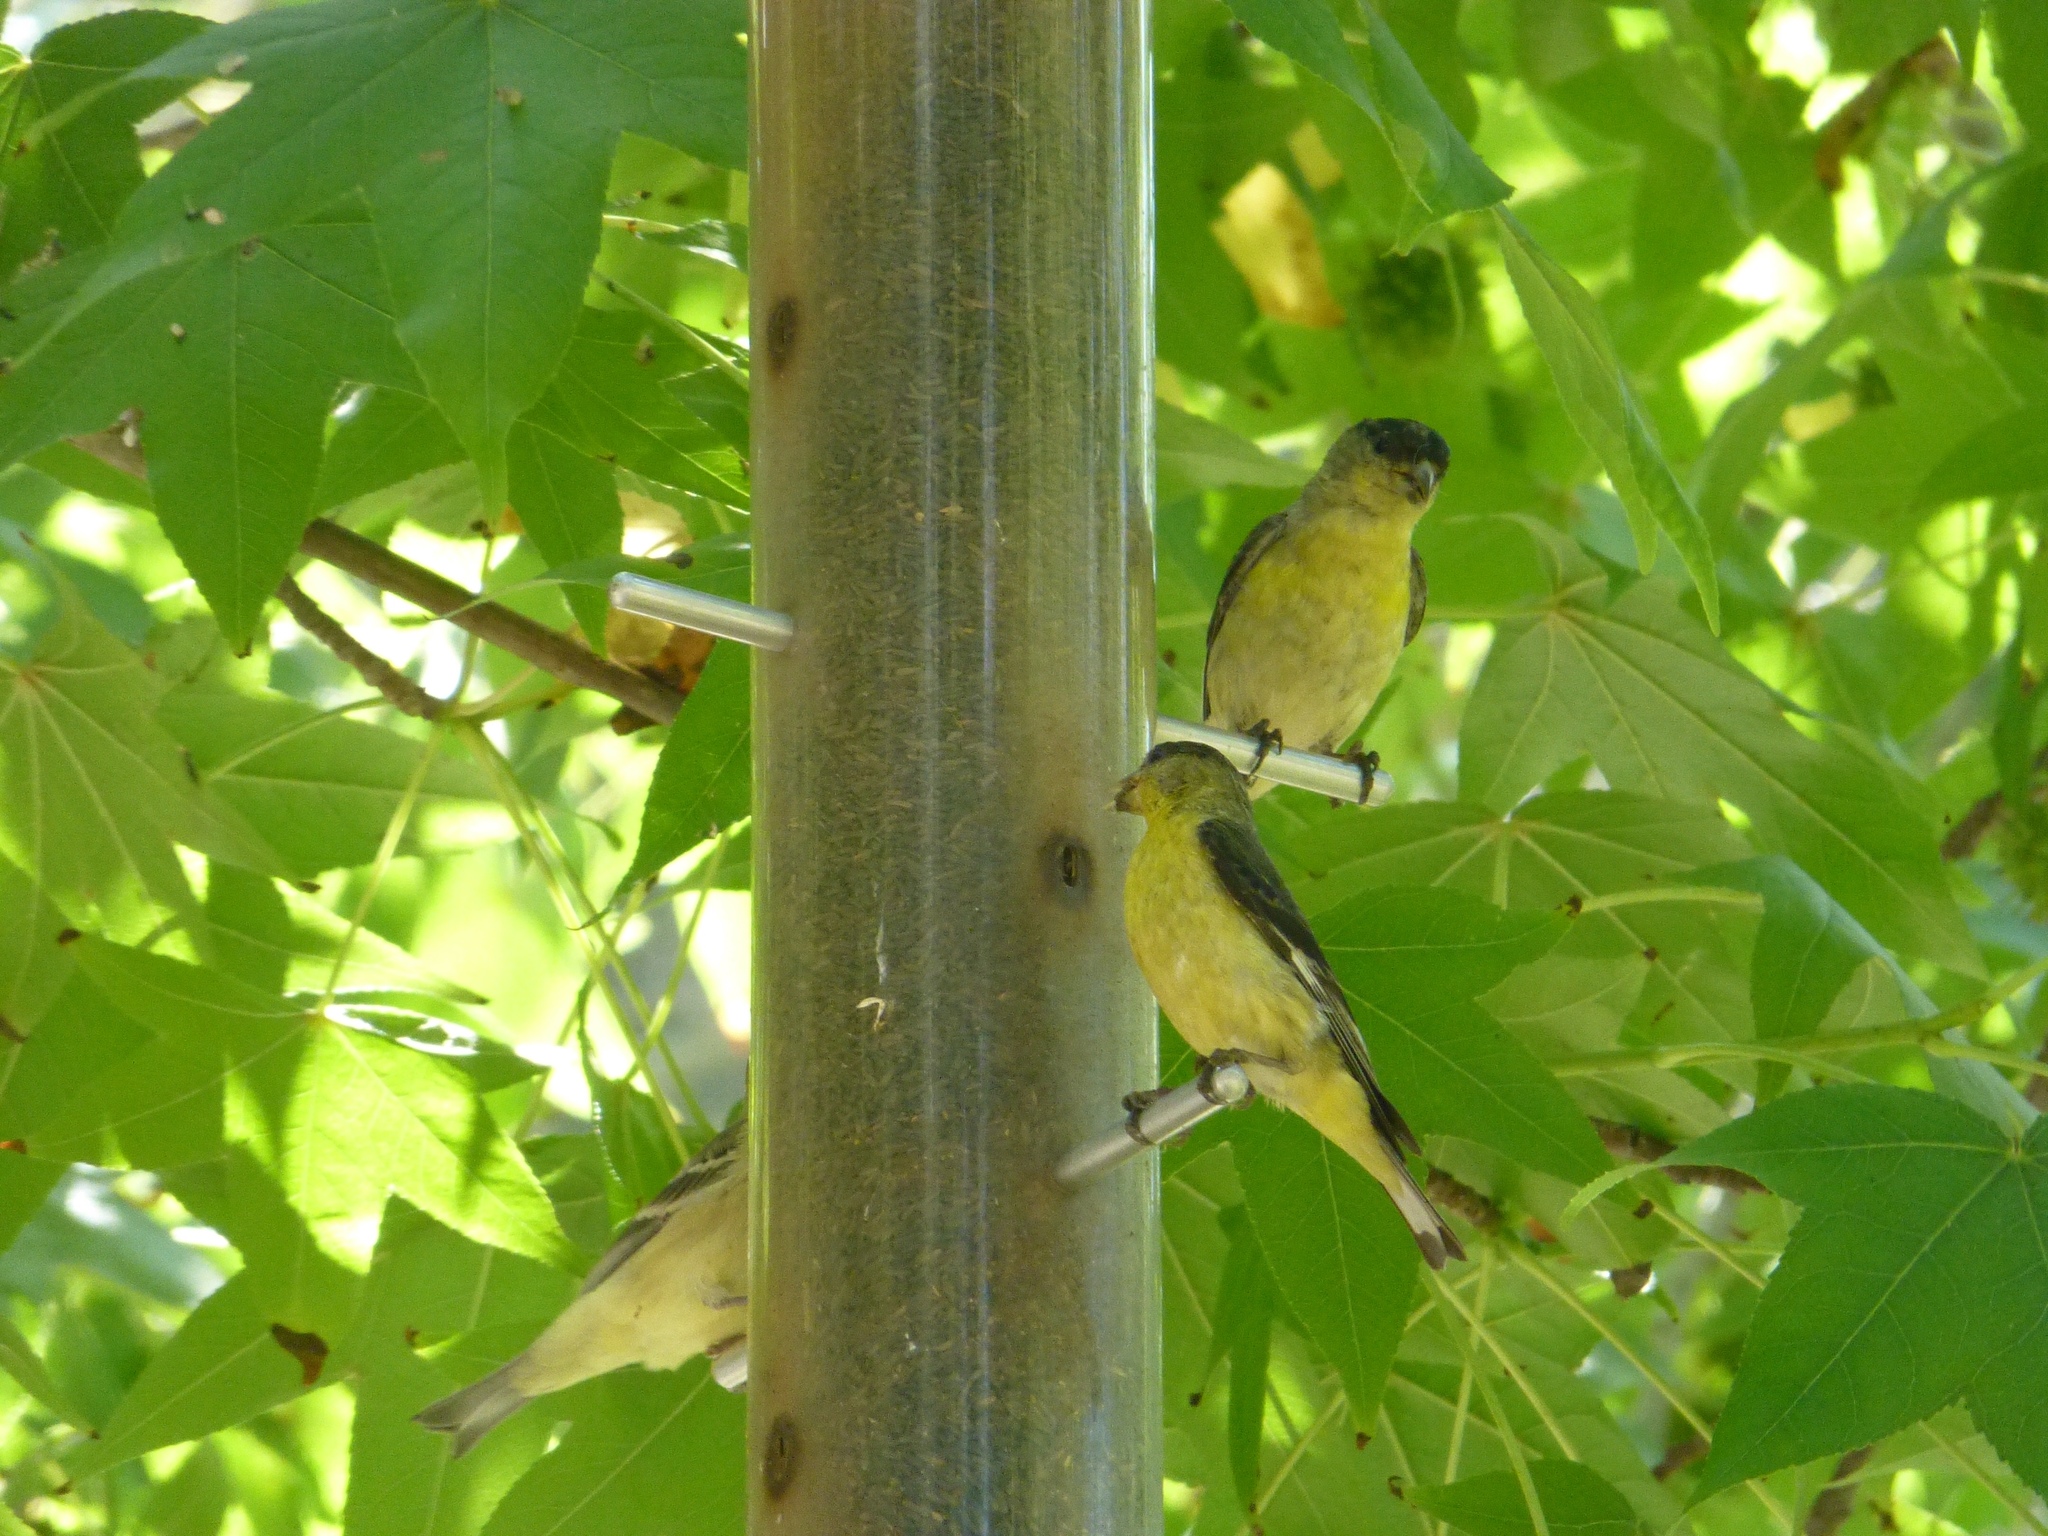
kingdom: Animalia
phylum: Chordata
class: Aves
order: Passeriformes
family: Fringillidae
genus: Spinus
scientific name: Spinus psaltria
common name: Lesser goldfinch
